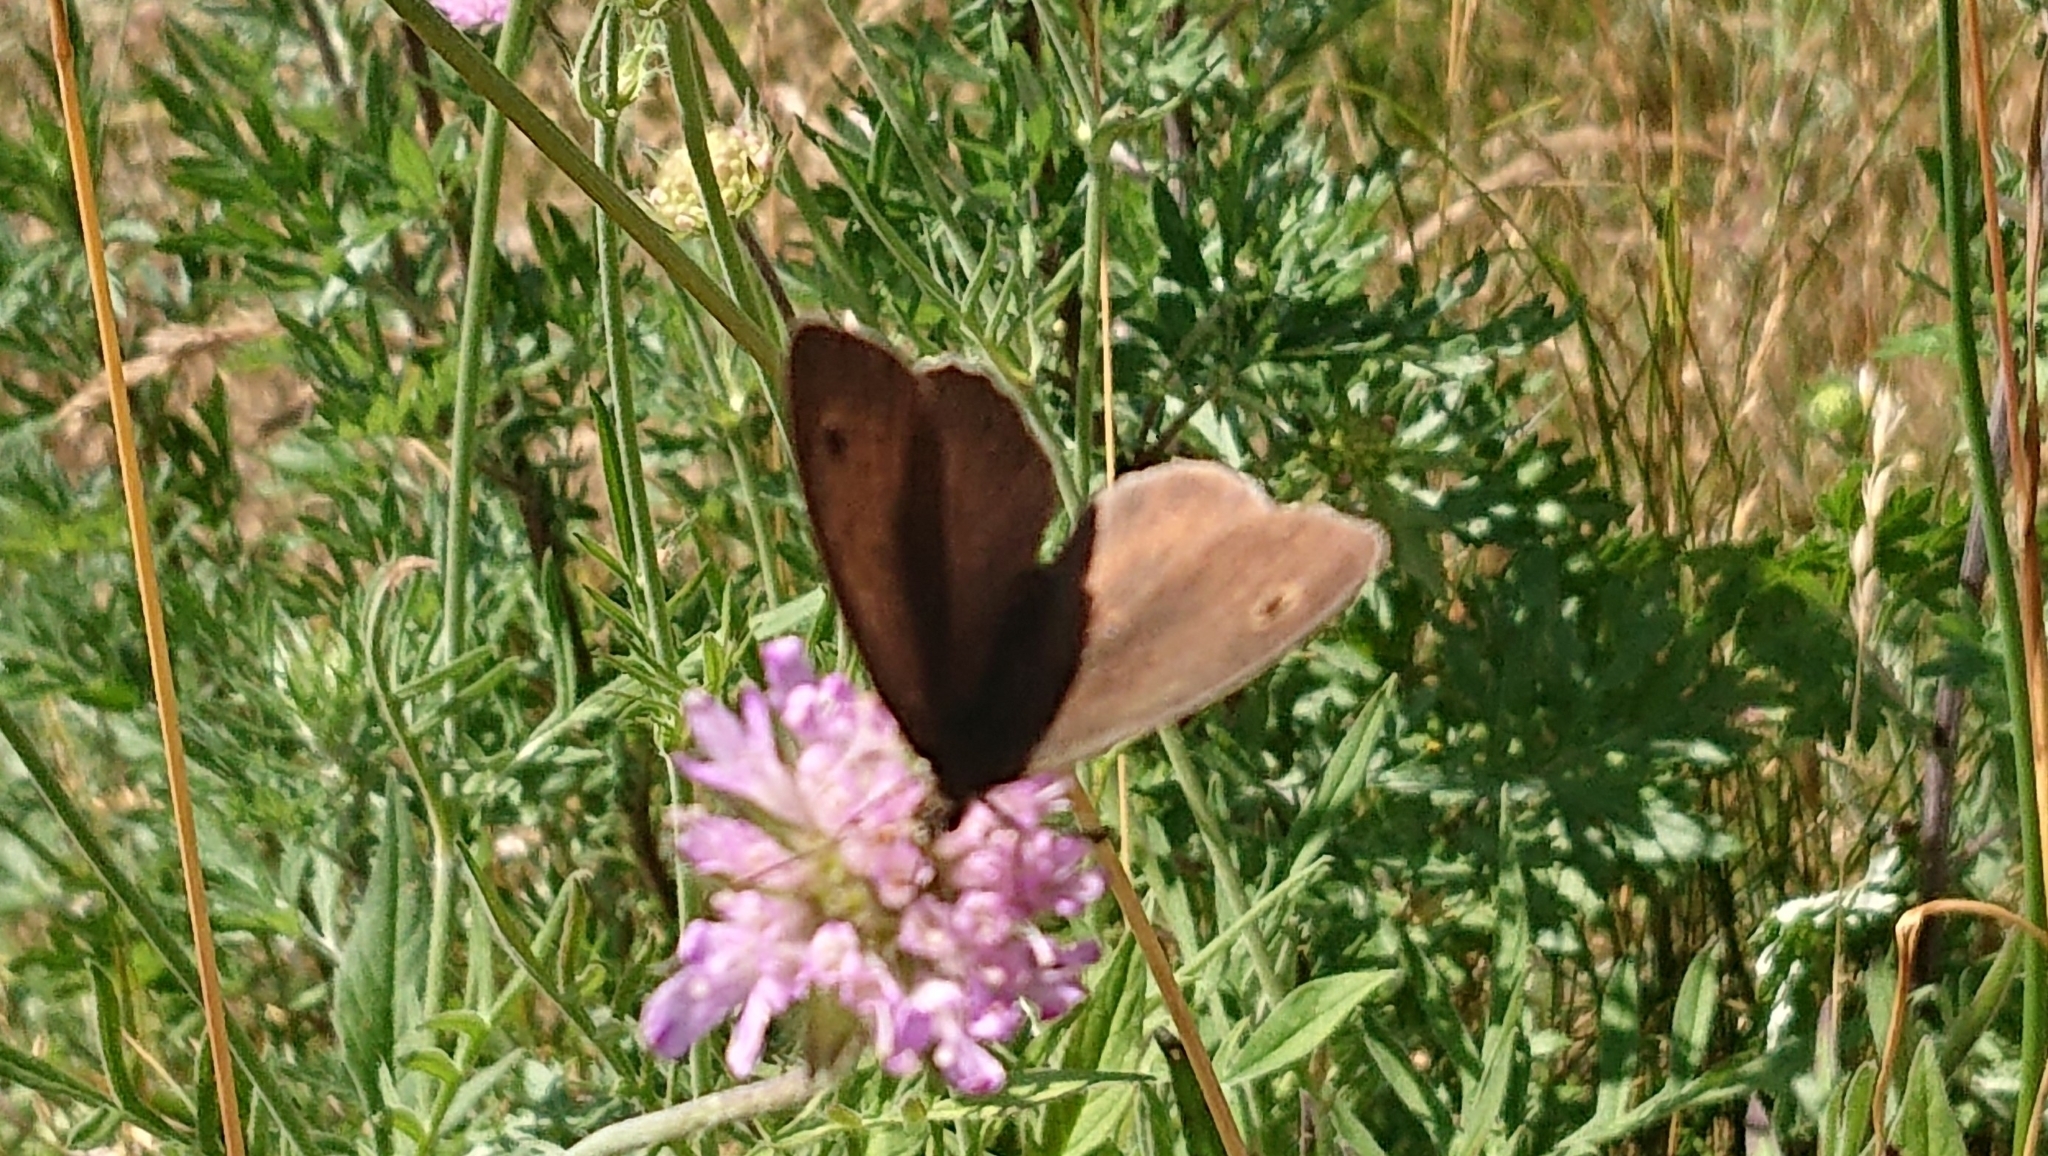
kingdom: Animalia
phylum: Arthropoda
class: Insecta
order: Lepidoptera
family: Nymphalidae
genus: Maniola
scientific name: Maniola jurtina
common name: Meadow brown
